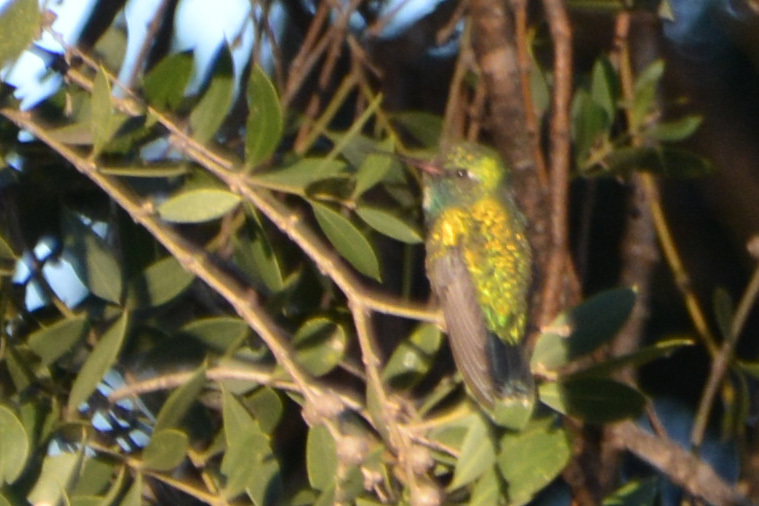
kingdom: Animalia
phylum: Chordata
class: Aves
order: Apodiformes
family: Trochilidae
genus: Chlorostilbon
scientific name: Chlorostilbon lucidus
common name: Glittering-bellied emerald
